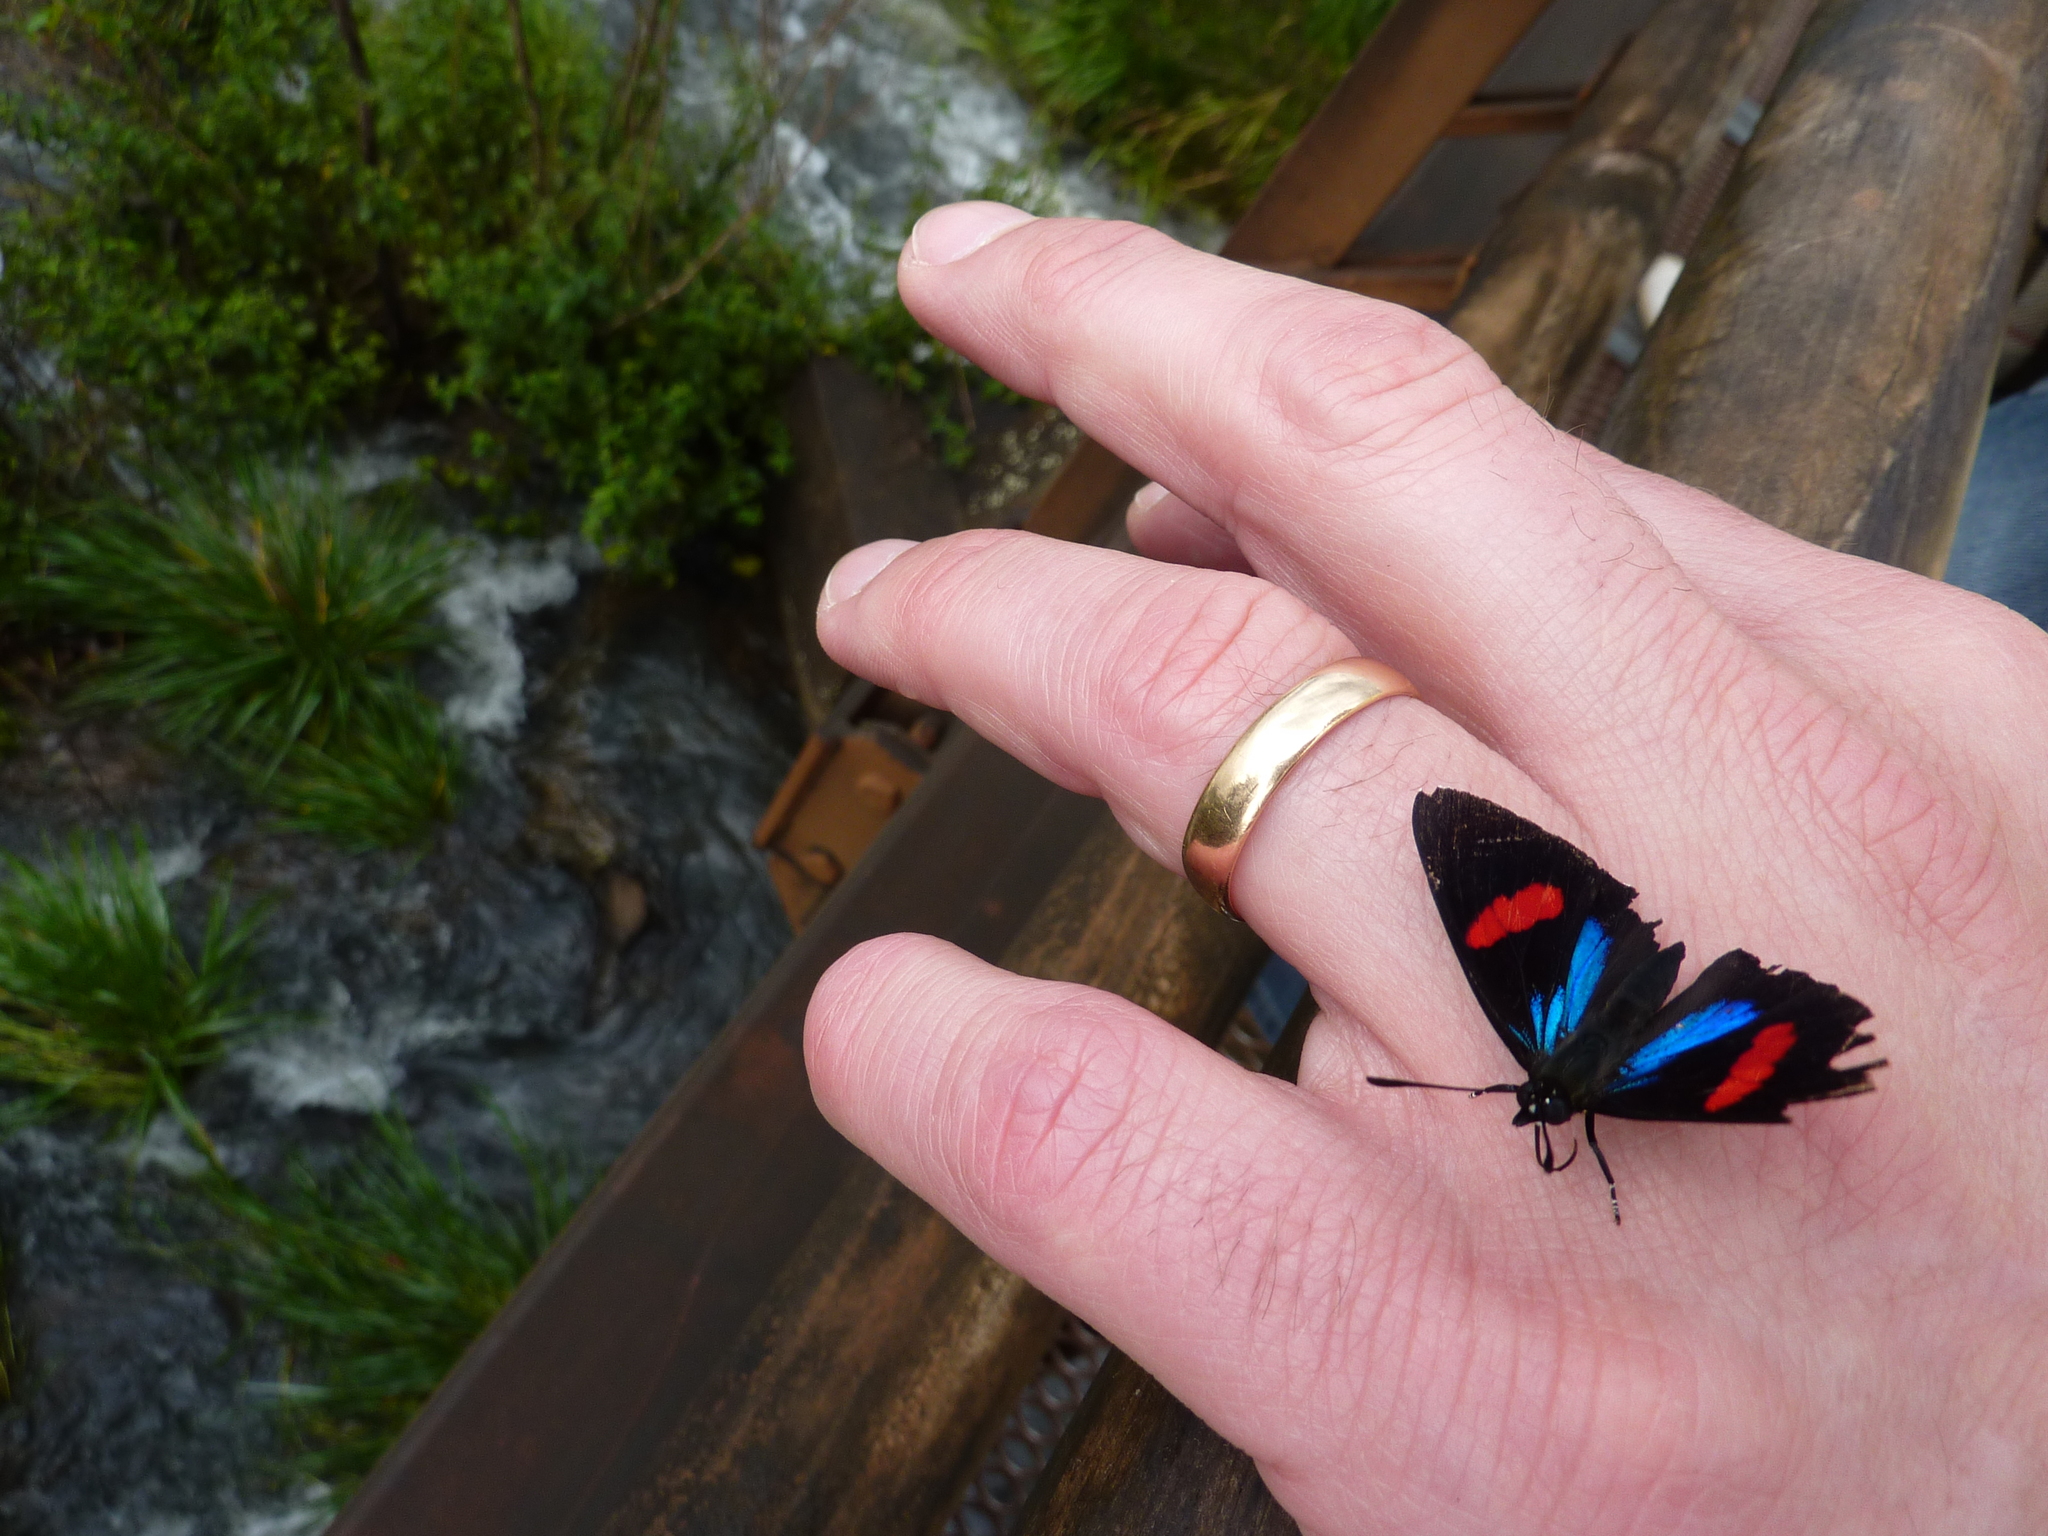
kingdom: Animalia
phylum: Arthropoda
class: Insecta
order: Lepidoptera
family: Nymphalidae
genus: Catagramma
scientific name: Catagramma Callicore hydaspes
